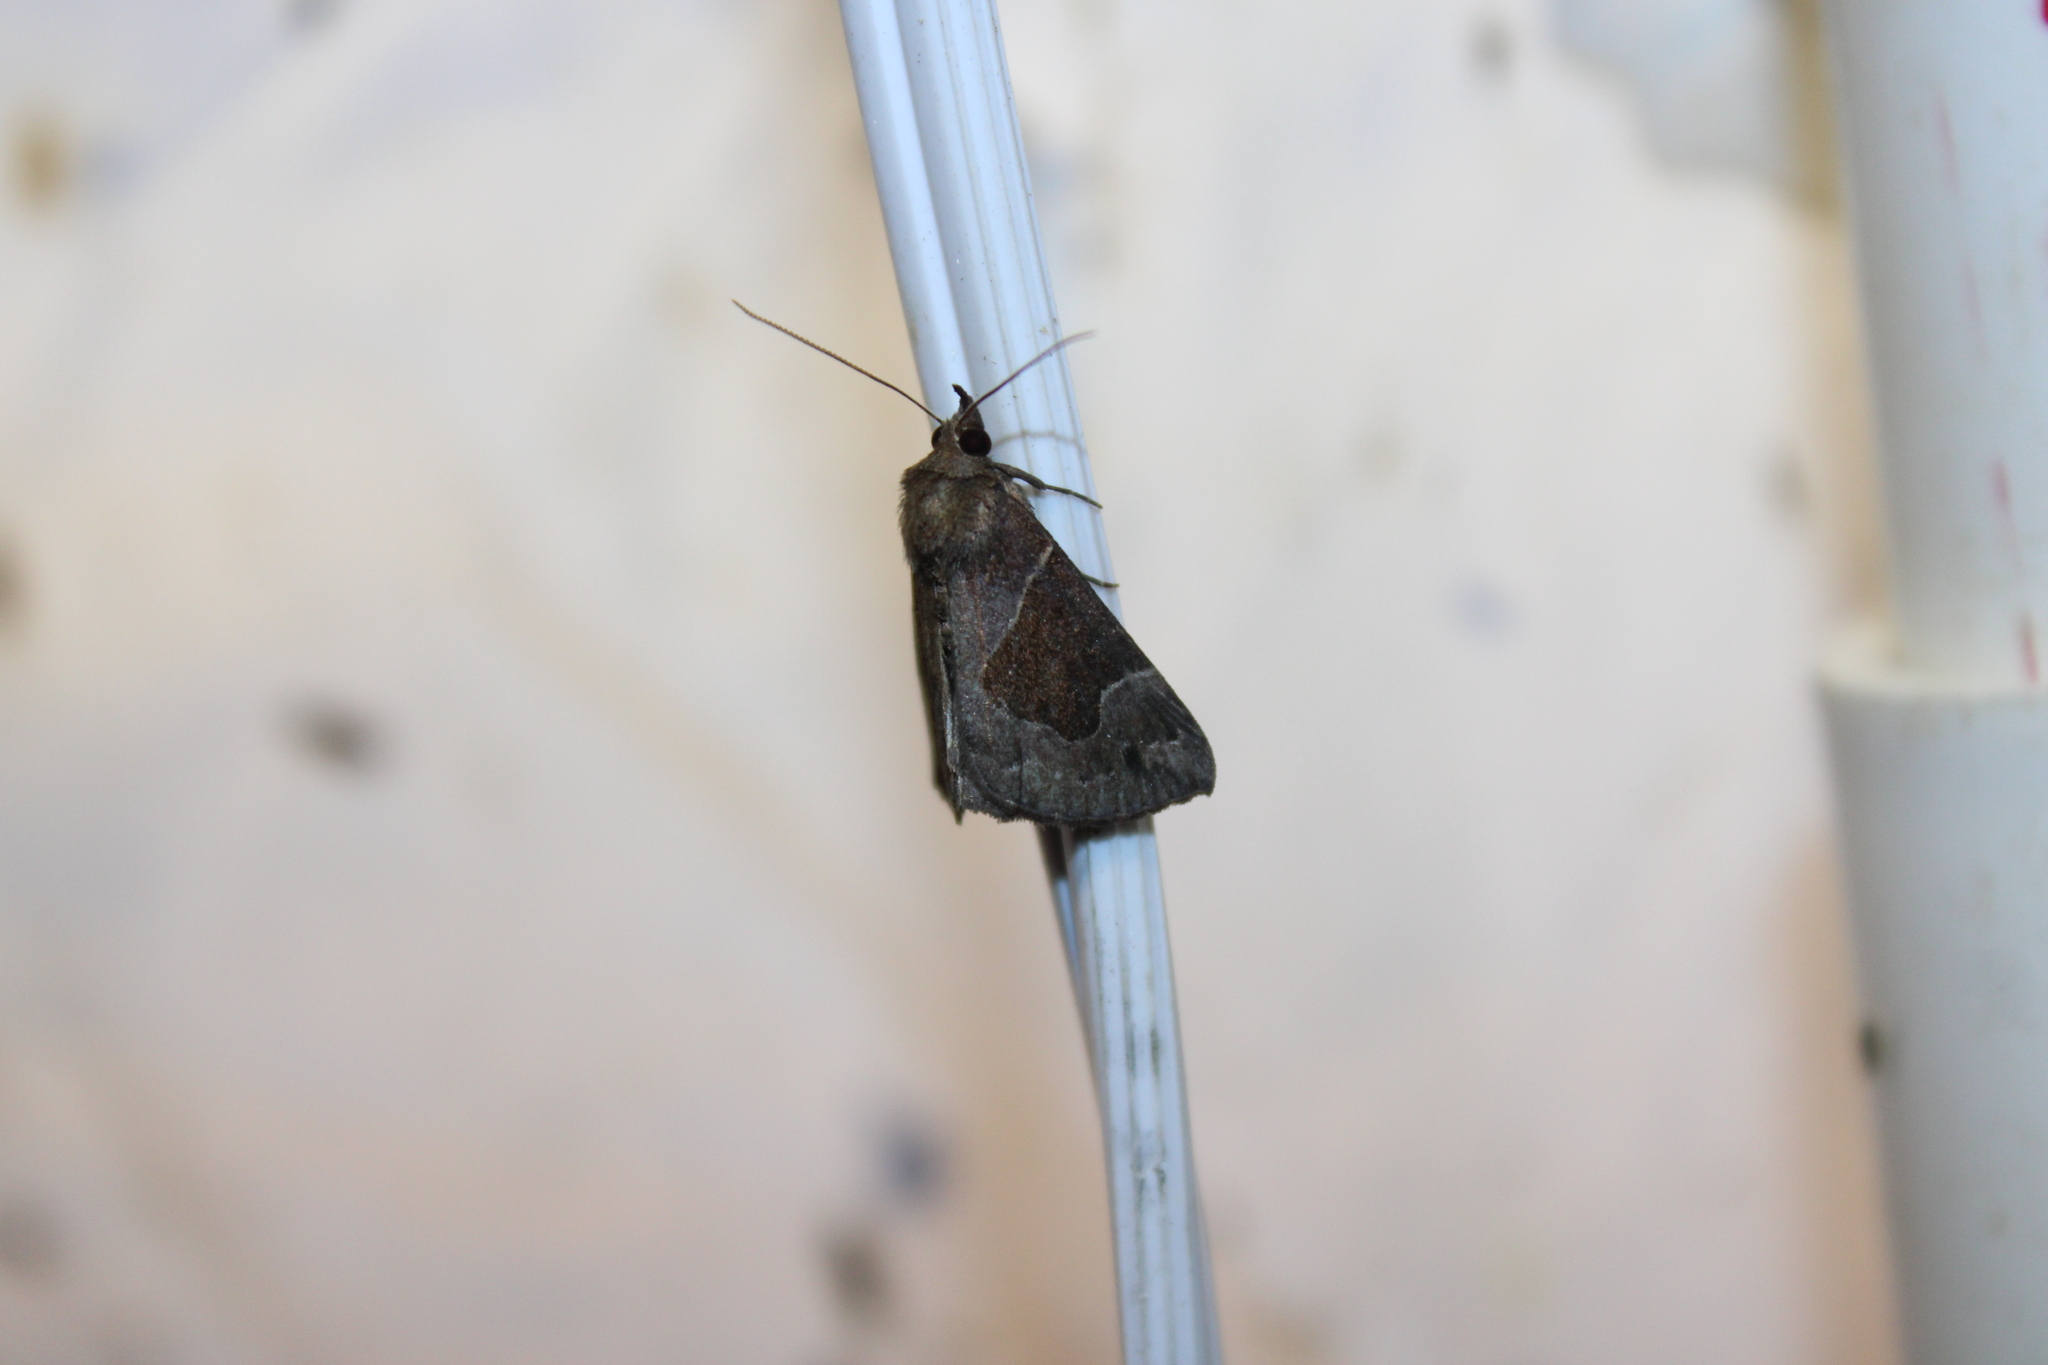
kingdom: Animalia
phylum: Arthropoda
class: Insecta
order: Lepidoptera
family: Erebidae
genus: Hypena
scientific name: Hypena manalis
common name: Flowing-line bomolocha moth
